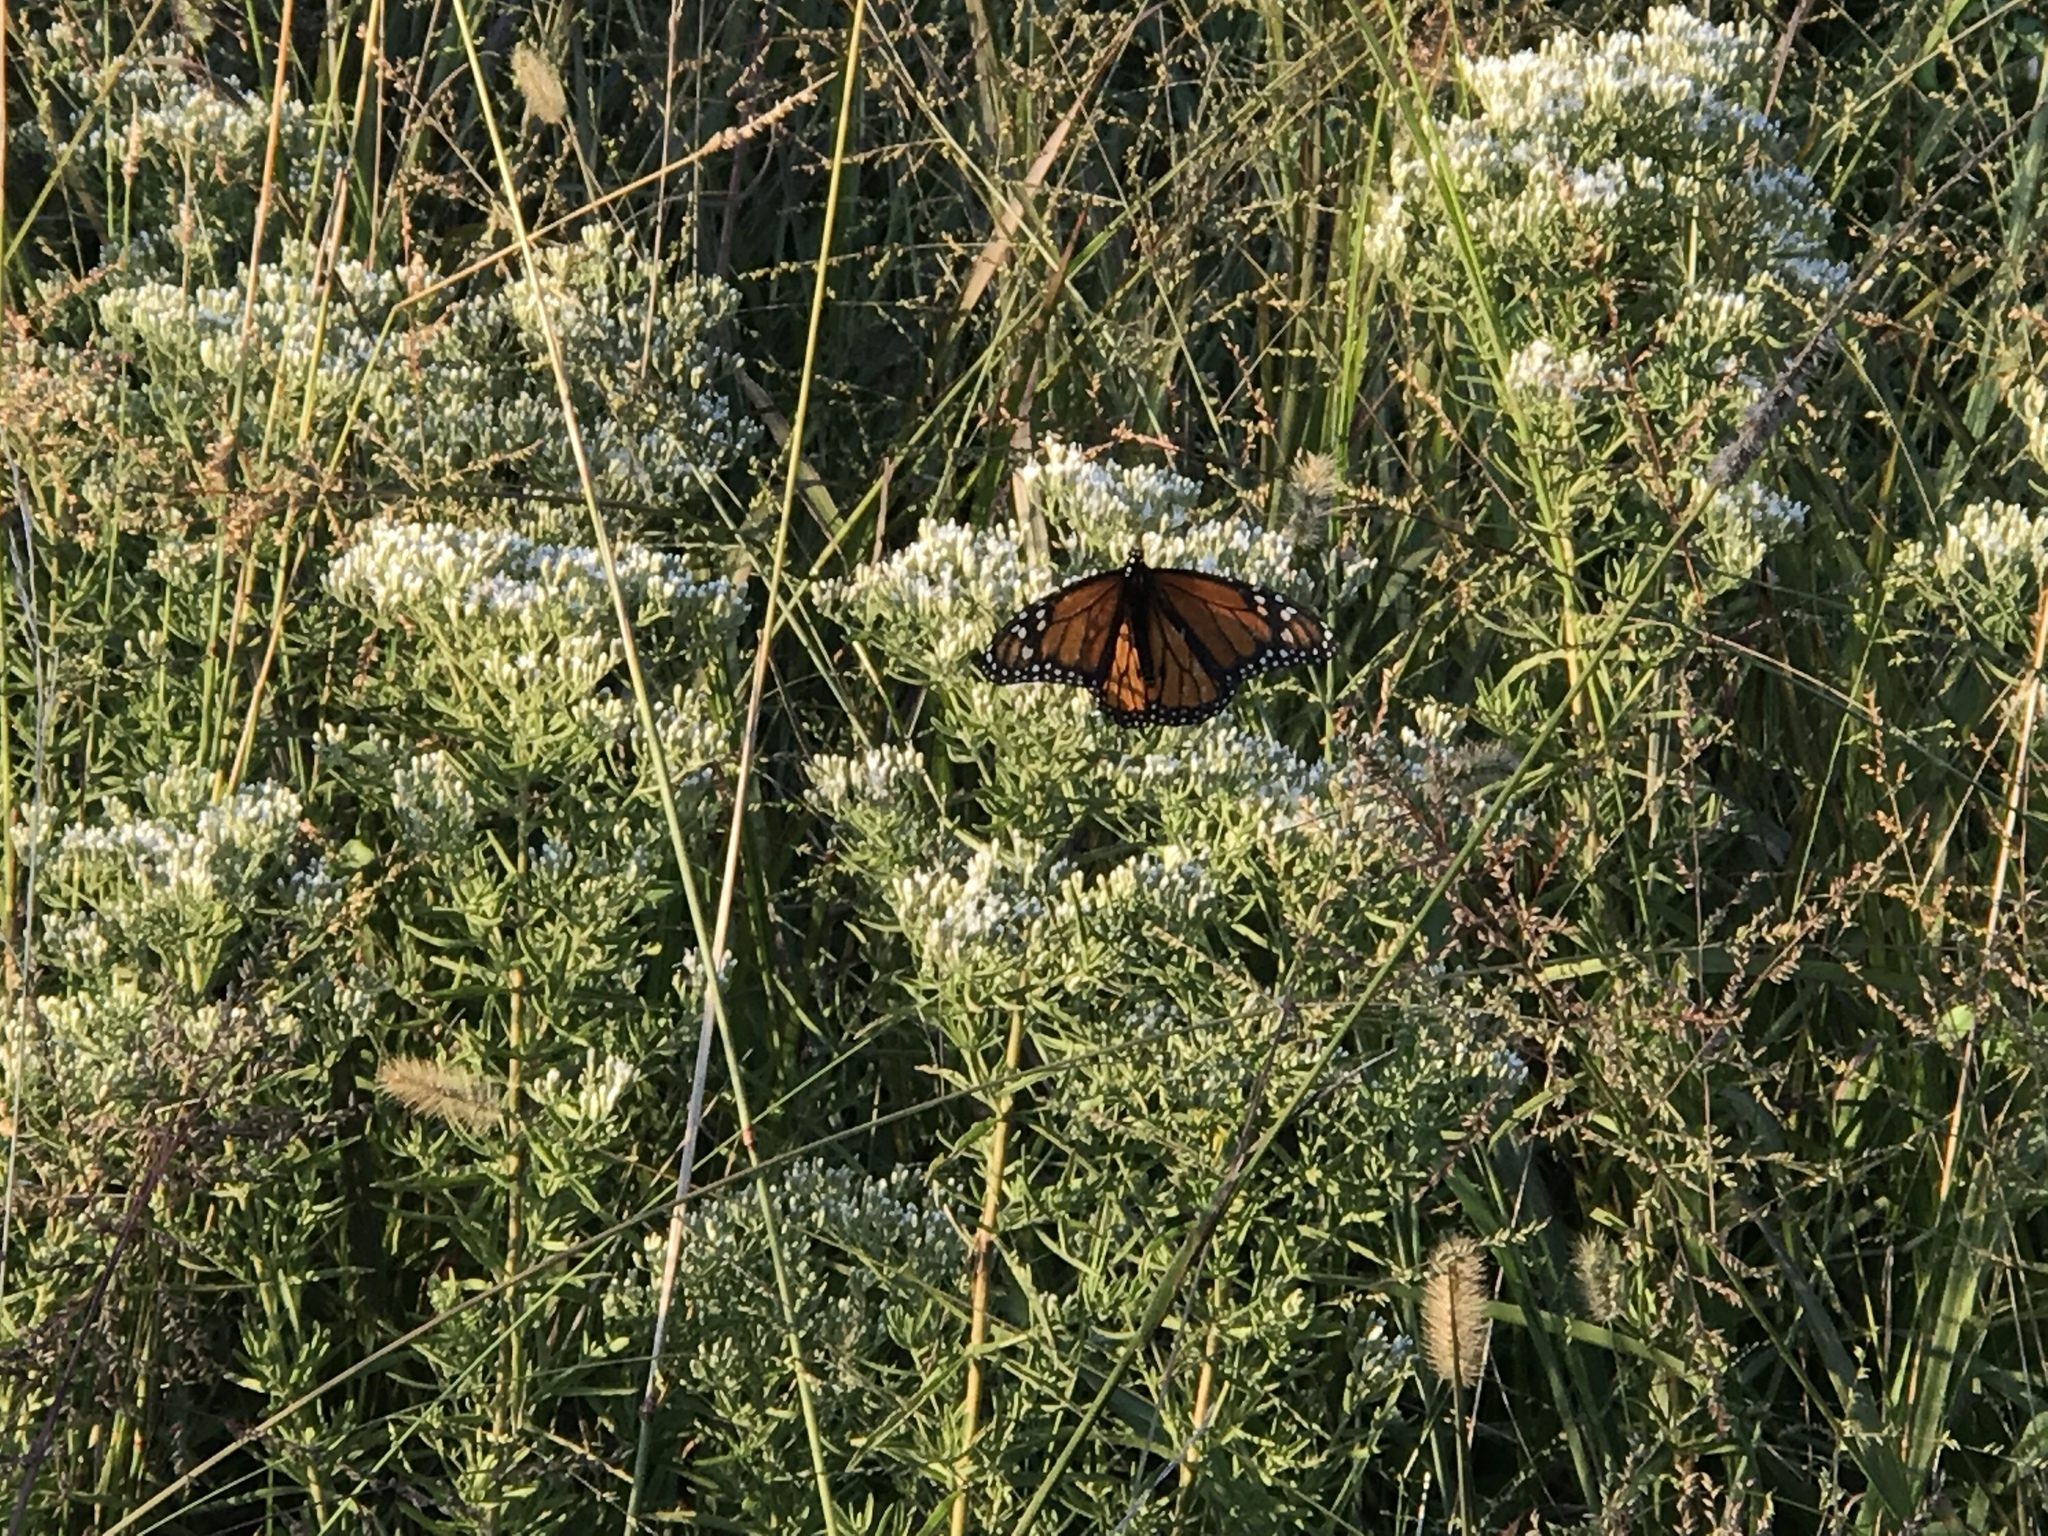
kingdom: Animalia
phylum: Arthropoda
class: Insecta
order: Lepidoptera
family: Nymphalidae
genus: Danaus
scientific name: Danaus plexippus
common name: Monarch
